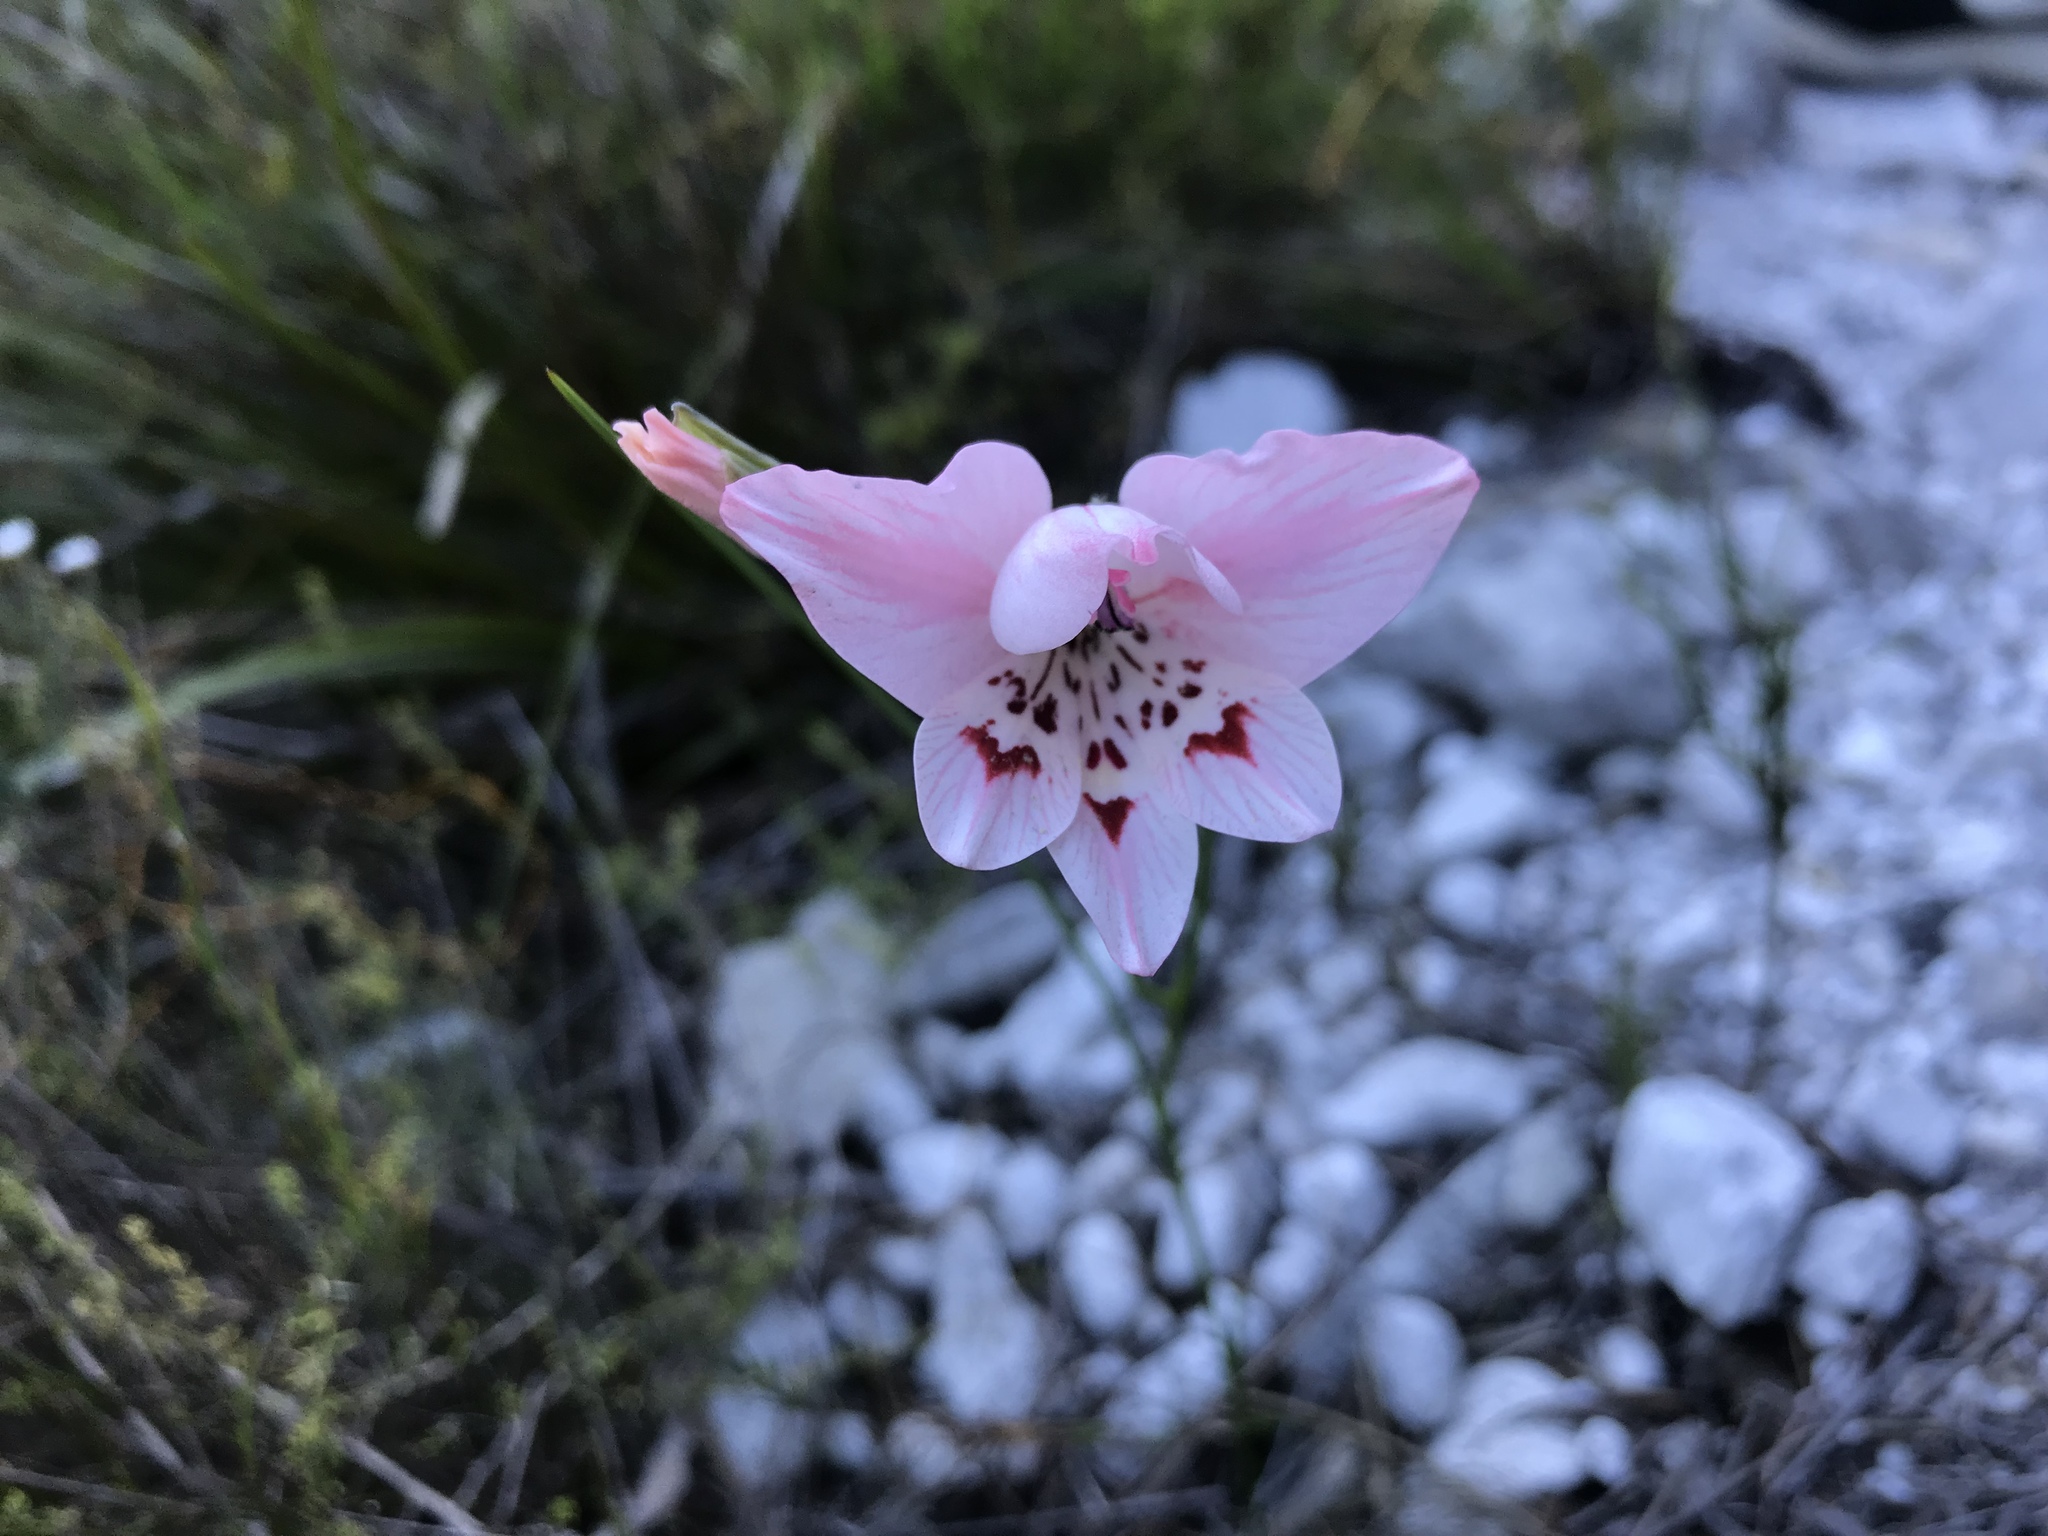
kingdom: Plantae
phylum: Tracheophyta
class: Liliopsida
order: Asparagales
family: Iridaceae
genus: Gladiolus
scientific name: Gladiolus debilis
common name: Painted-lady
